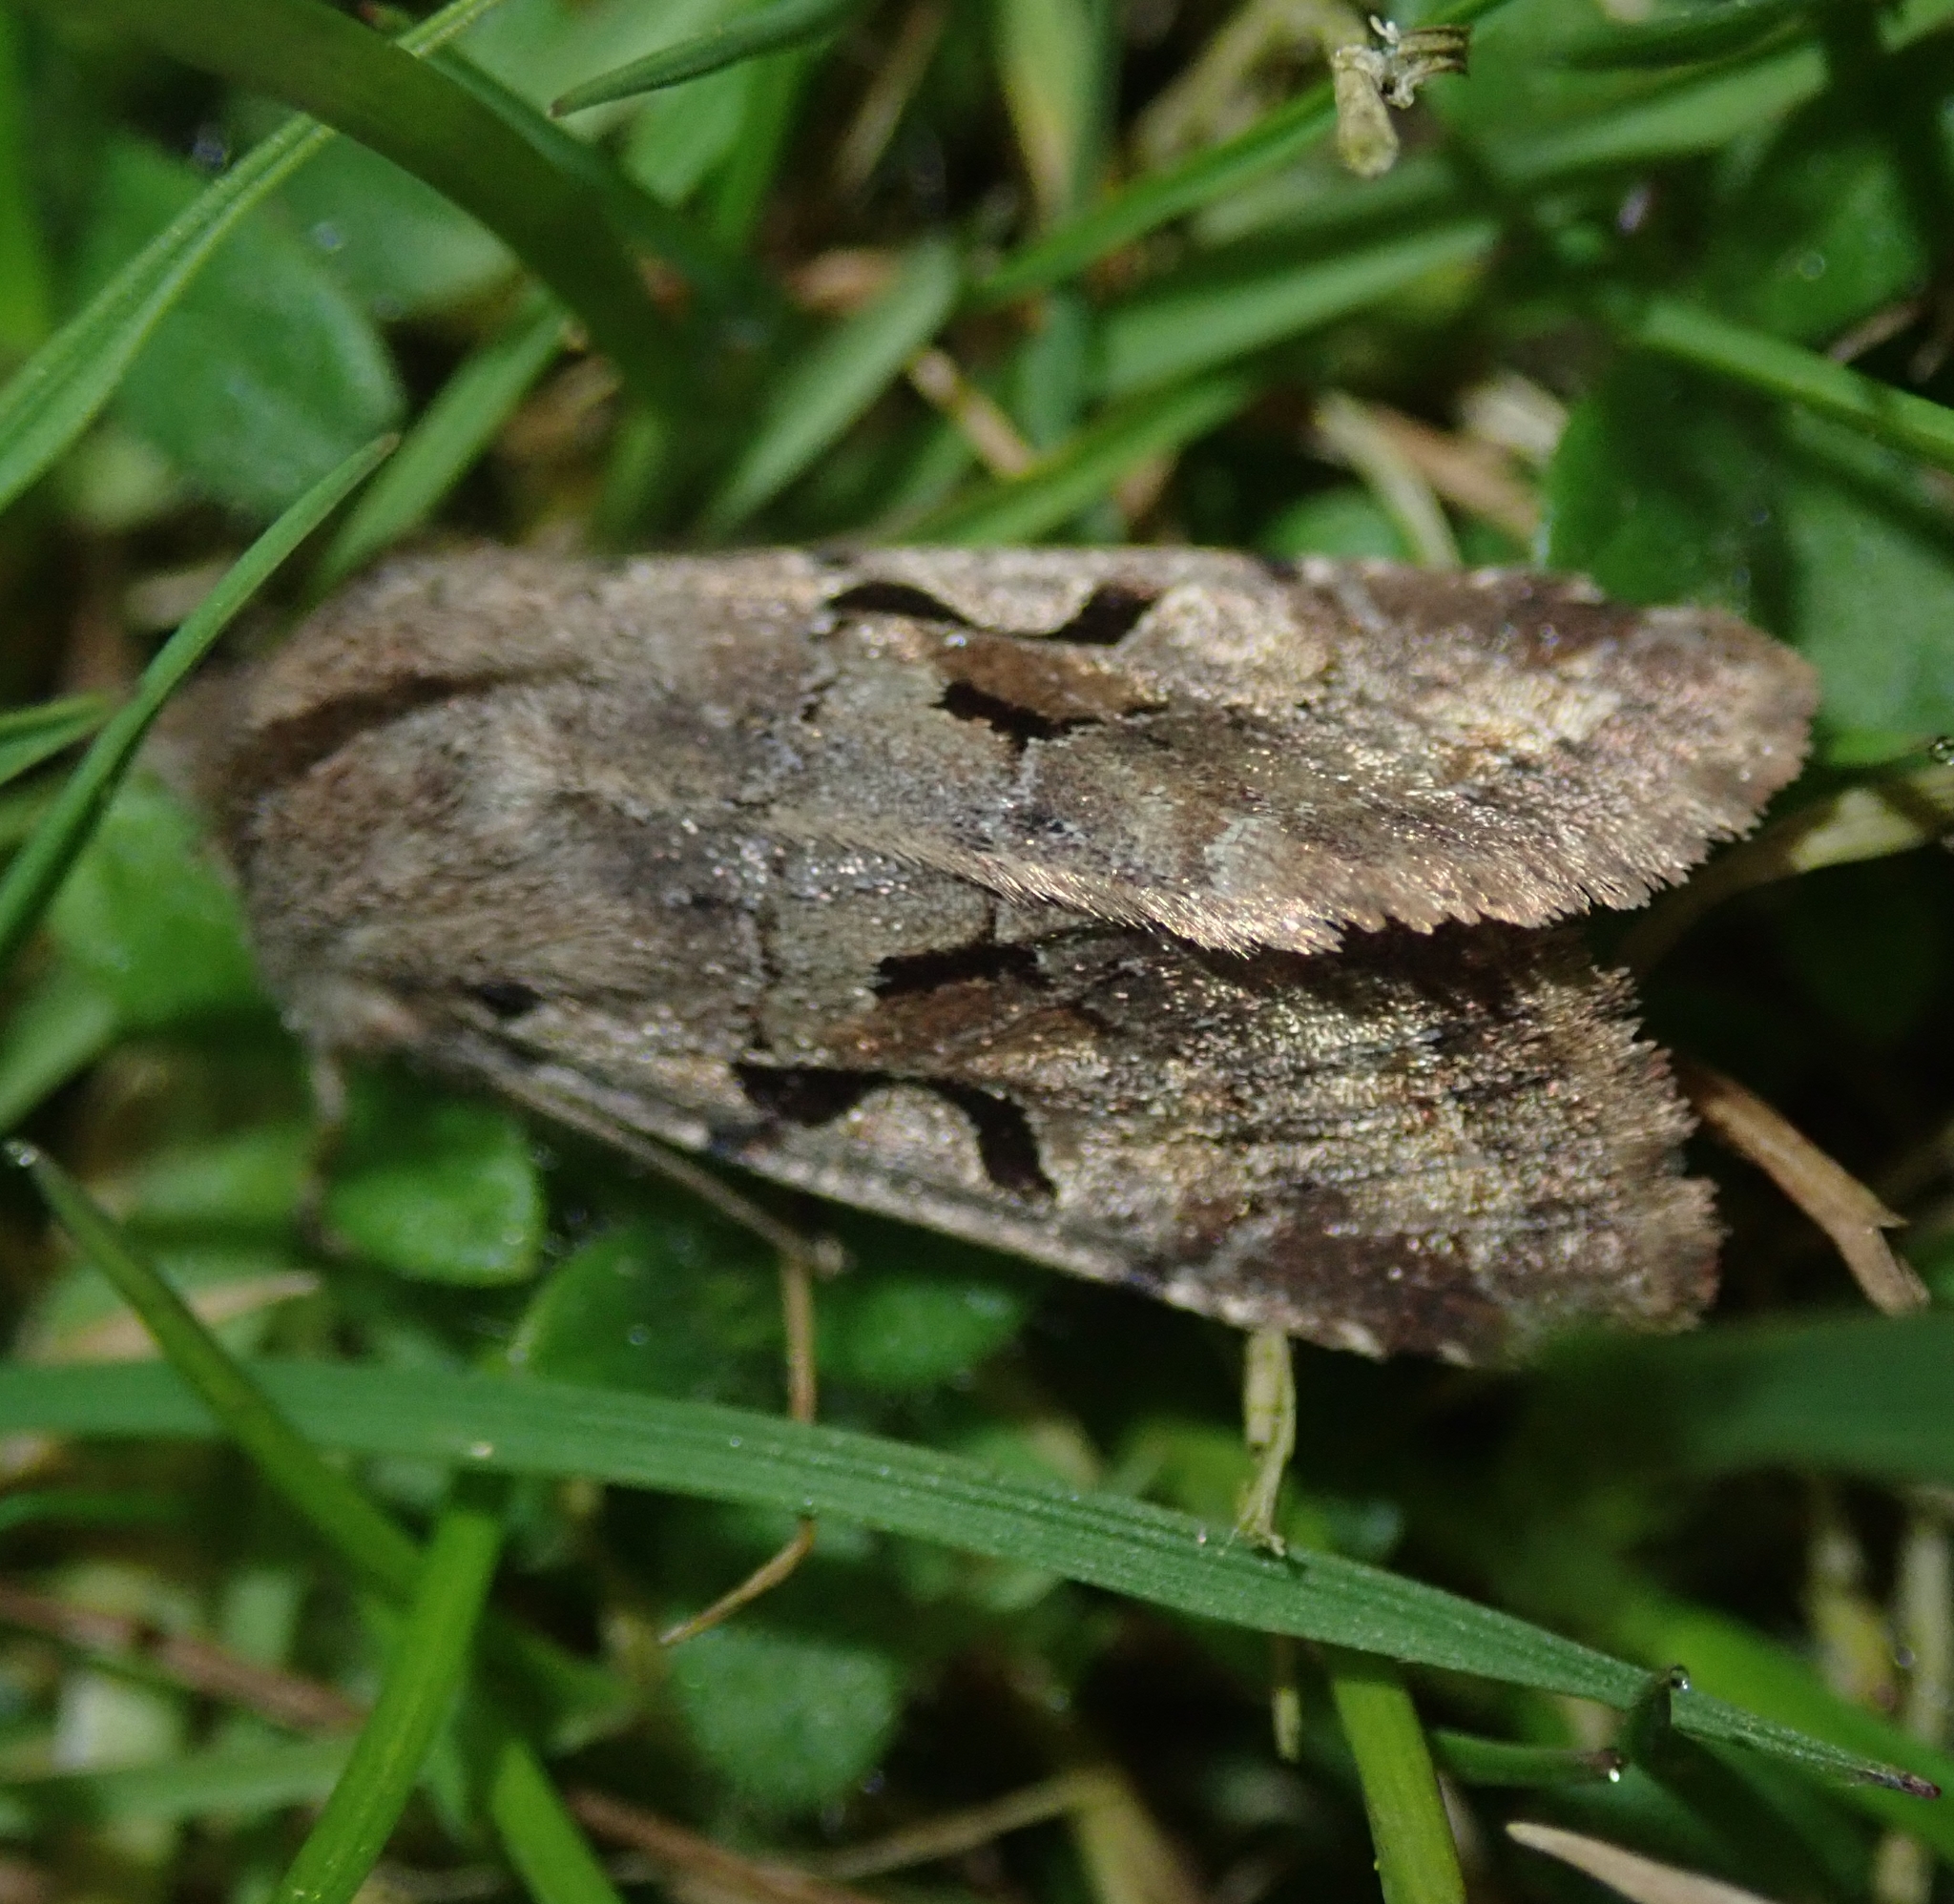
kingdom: Animalia
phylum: Arthropoda
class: Insecta
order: Lepidoptera
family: Noctuidae
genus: Orthosia
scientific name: Orthosia gothica
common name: Hebrew character
